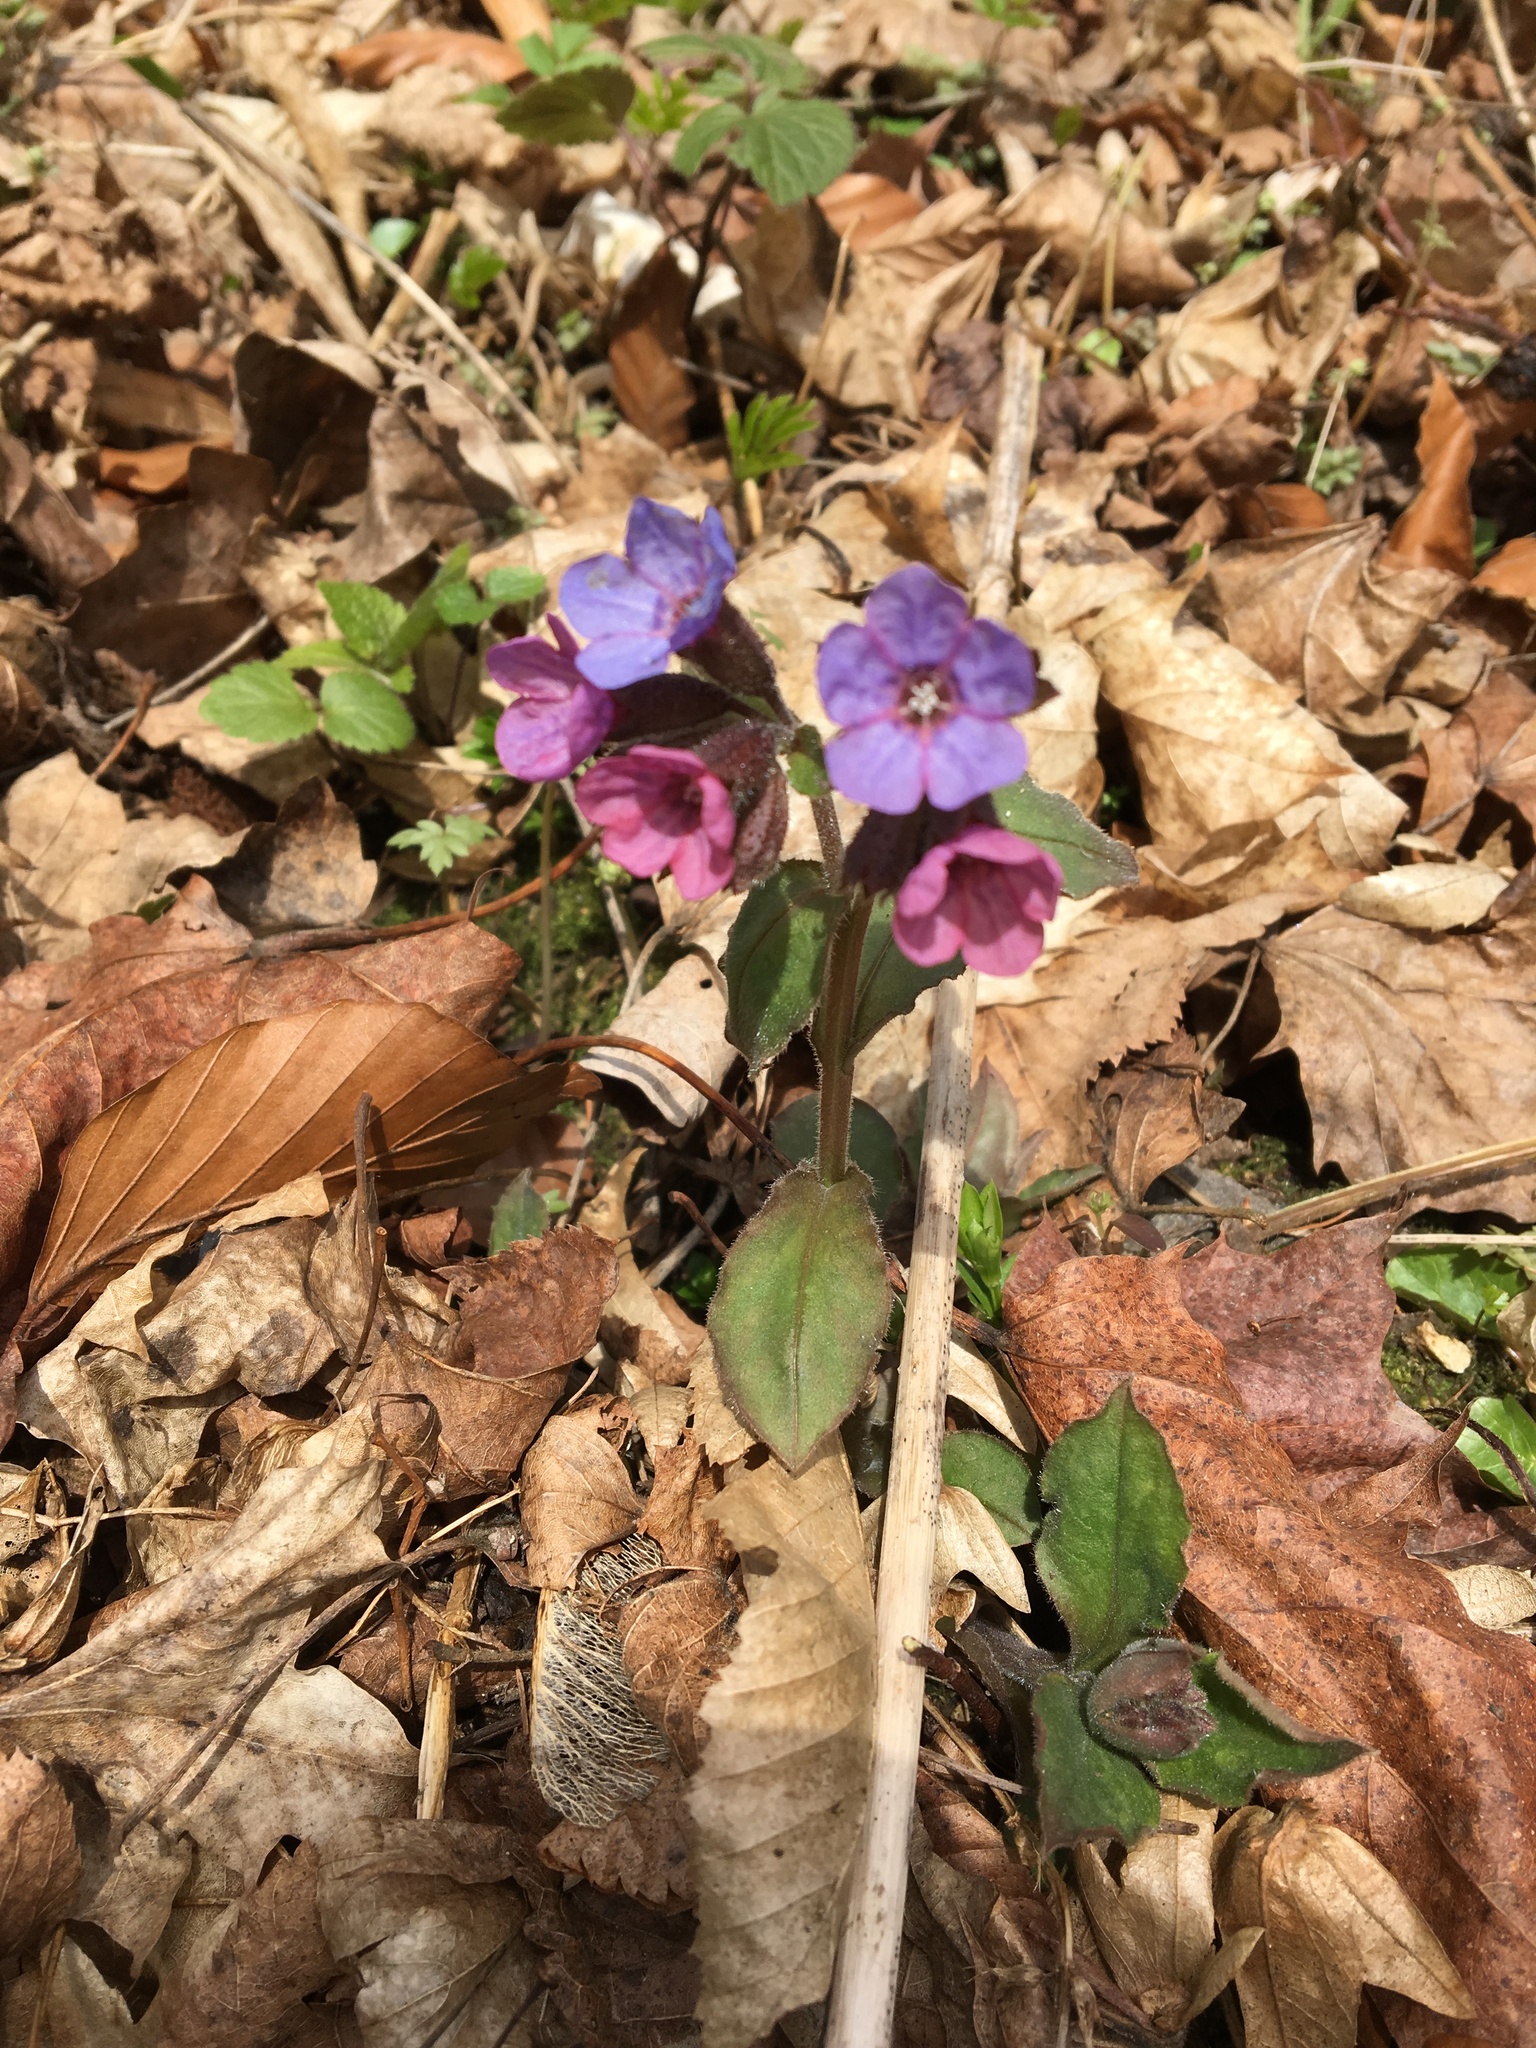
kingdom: Plantae
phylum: Tracheophyta
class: Magnoliopsida
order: Boraginales
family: Boraginaceae
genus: Pulmonaria
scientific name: Pulmonaria obscura
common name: Suffolk lungwort
